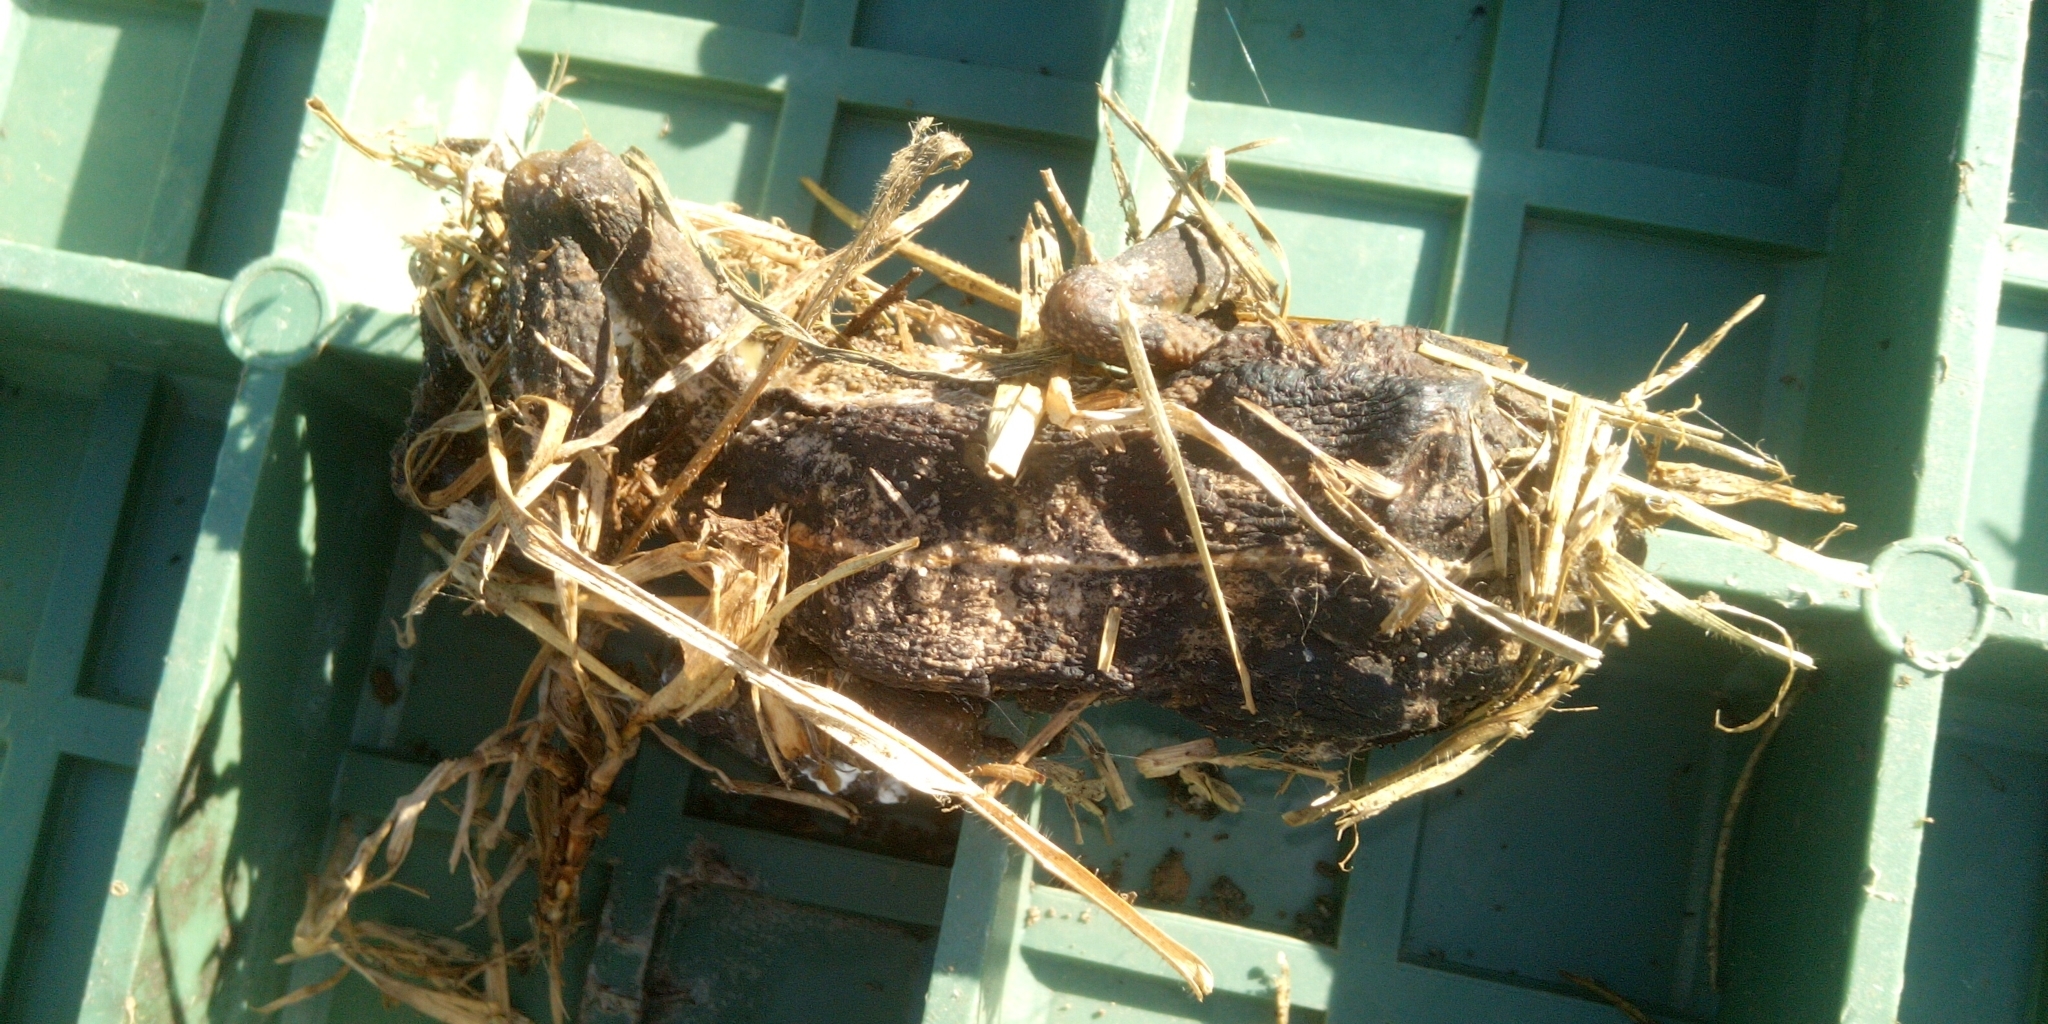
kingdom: Animalia
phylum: Chordata
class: Amphibia
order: Anura
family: Bufonidae
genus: Sclerophrys
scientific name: Sclerophrys pantherina
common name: Panther toad
